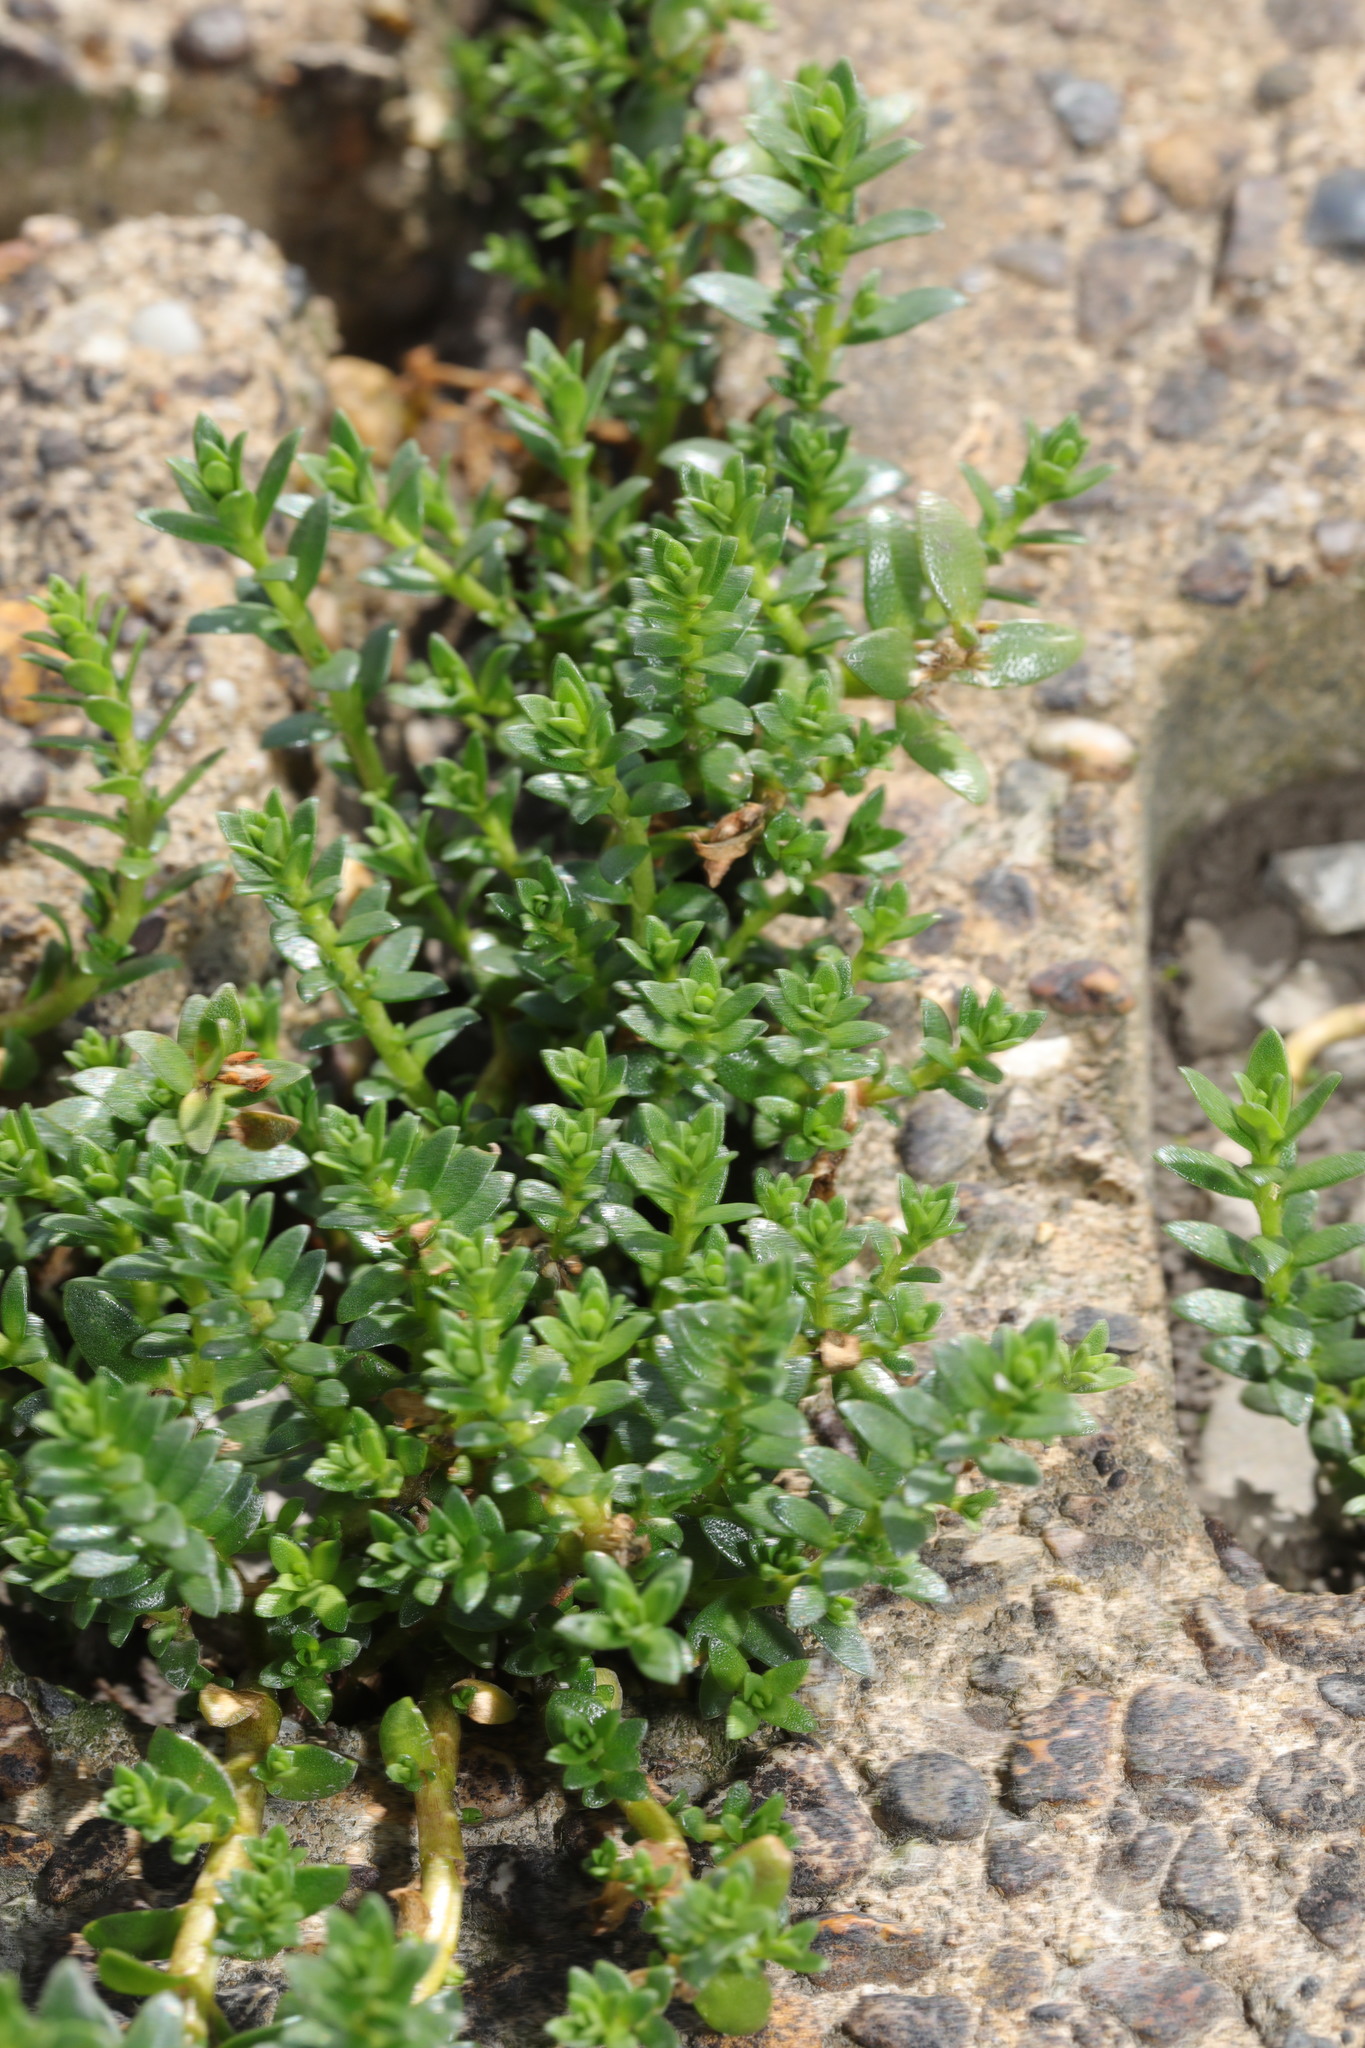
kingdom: Plantae
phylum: Tracheophyta
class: Magnoliopsida
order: Ericales
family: Primulaceae
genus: Lysimachia
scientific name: Lysimachia maritima
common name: Sea milkwort
